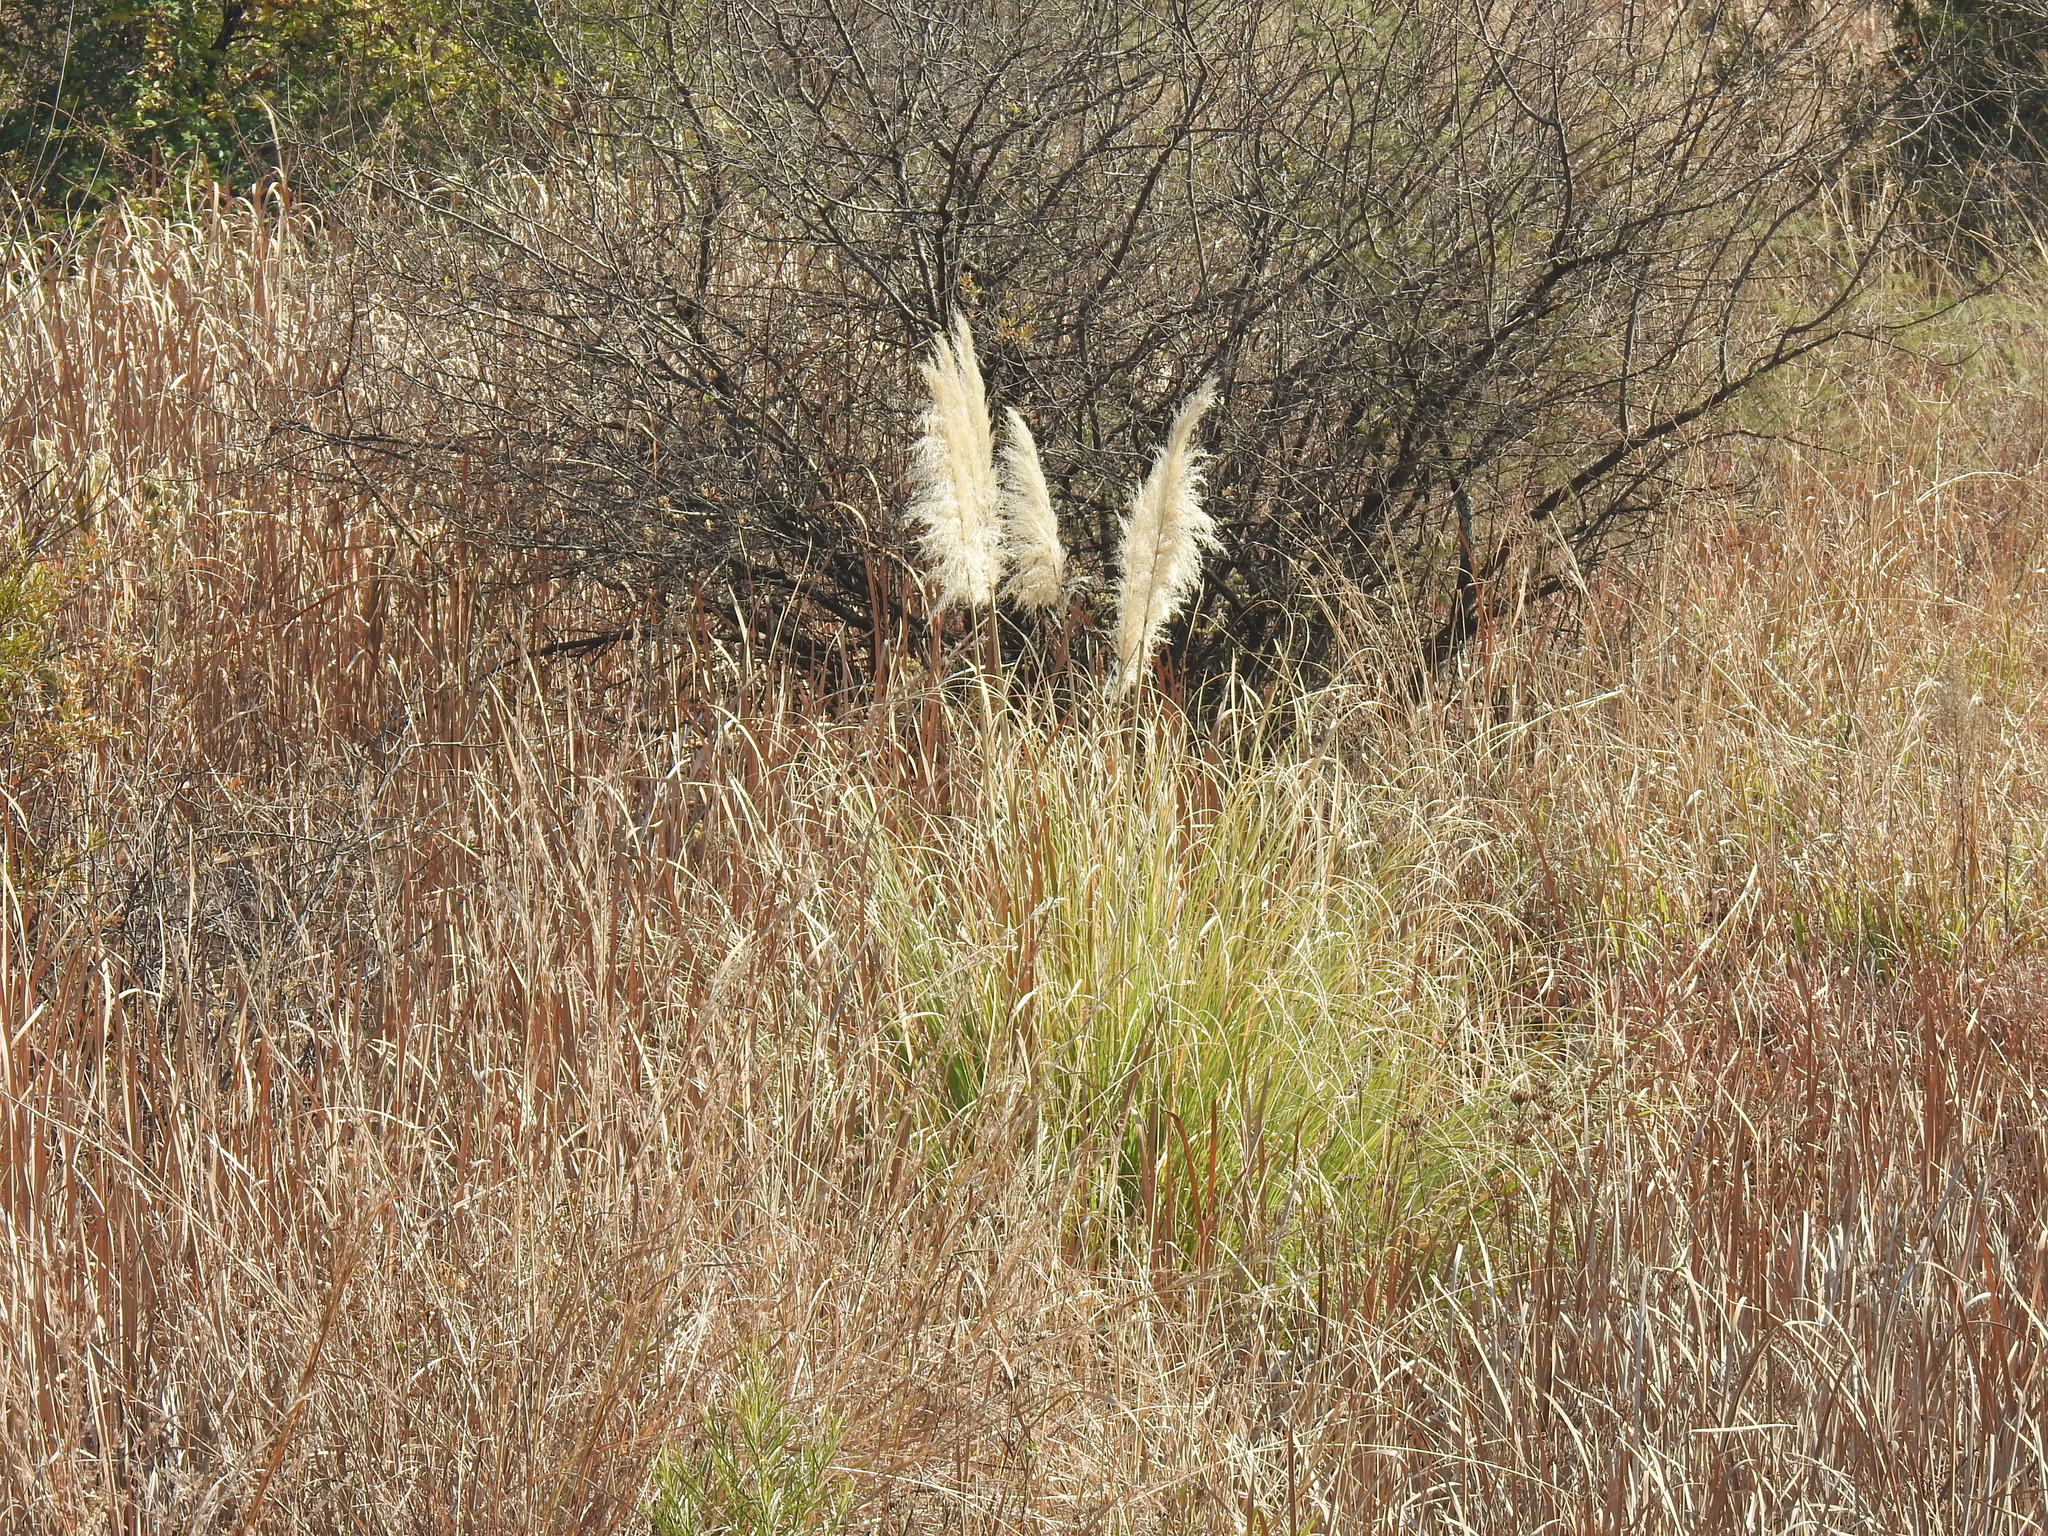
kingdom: Plantae
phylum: Tracheophyta
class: Liliopsida
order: Poales
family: Poaceae
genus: Cortaderia
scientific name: Cortaderia selloana
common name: Uruguayan pampas grass
